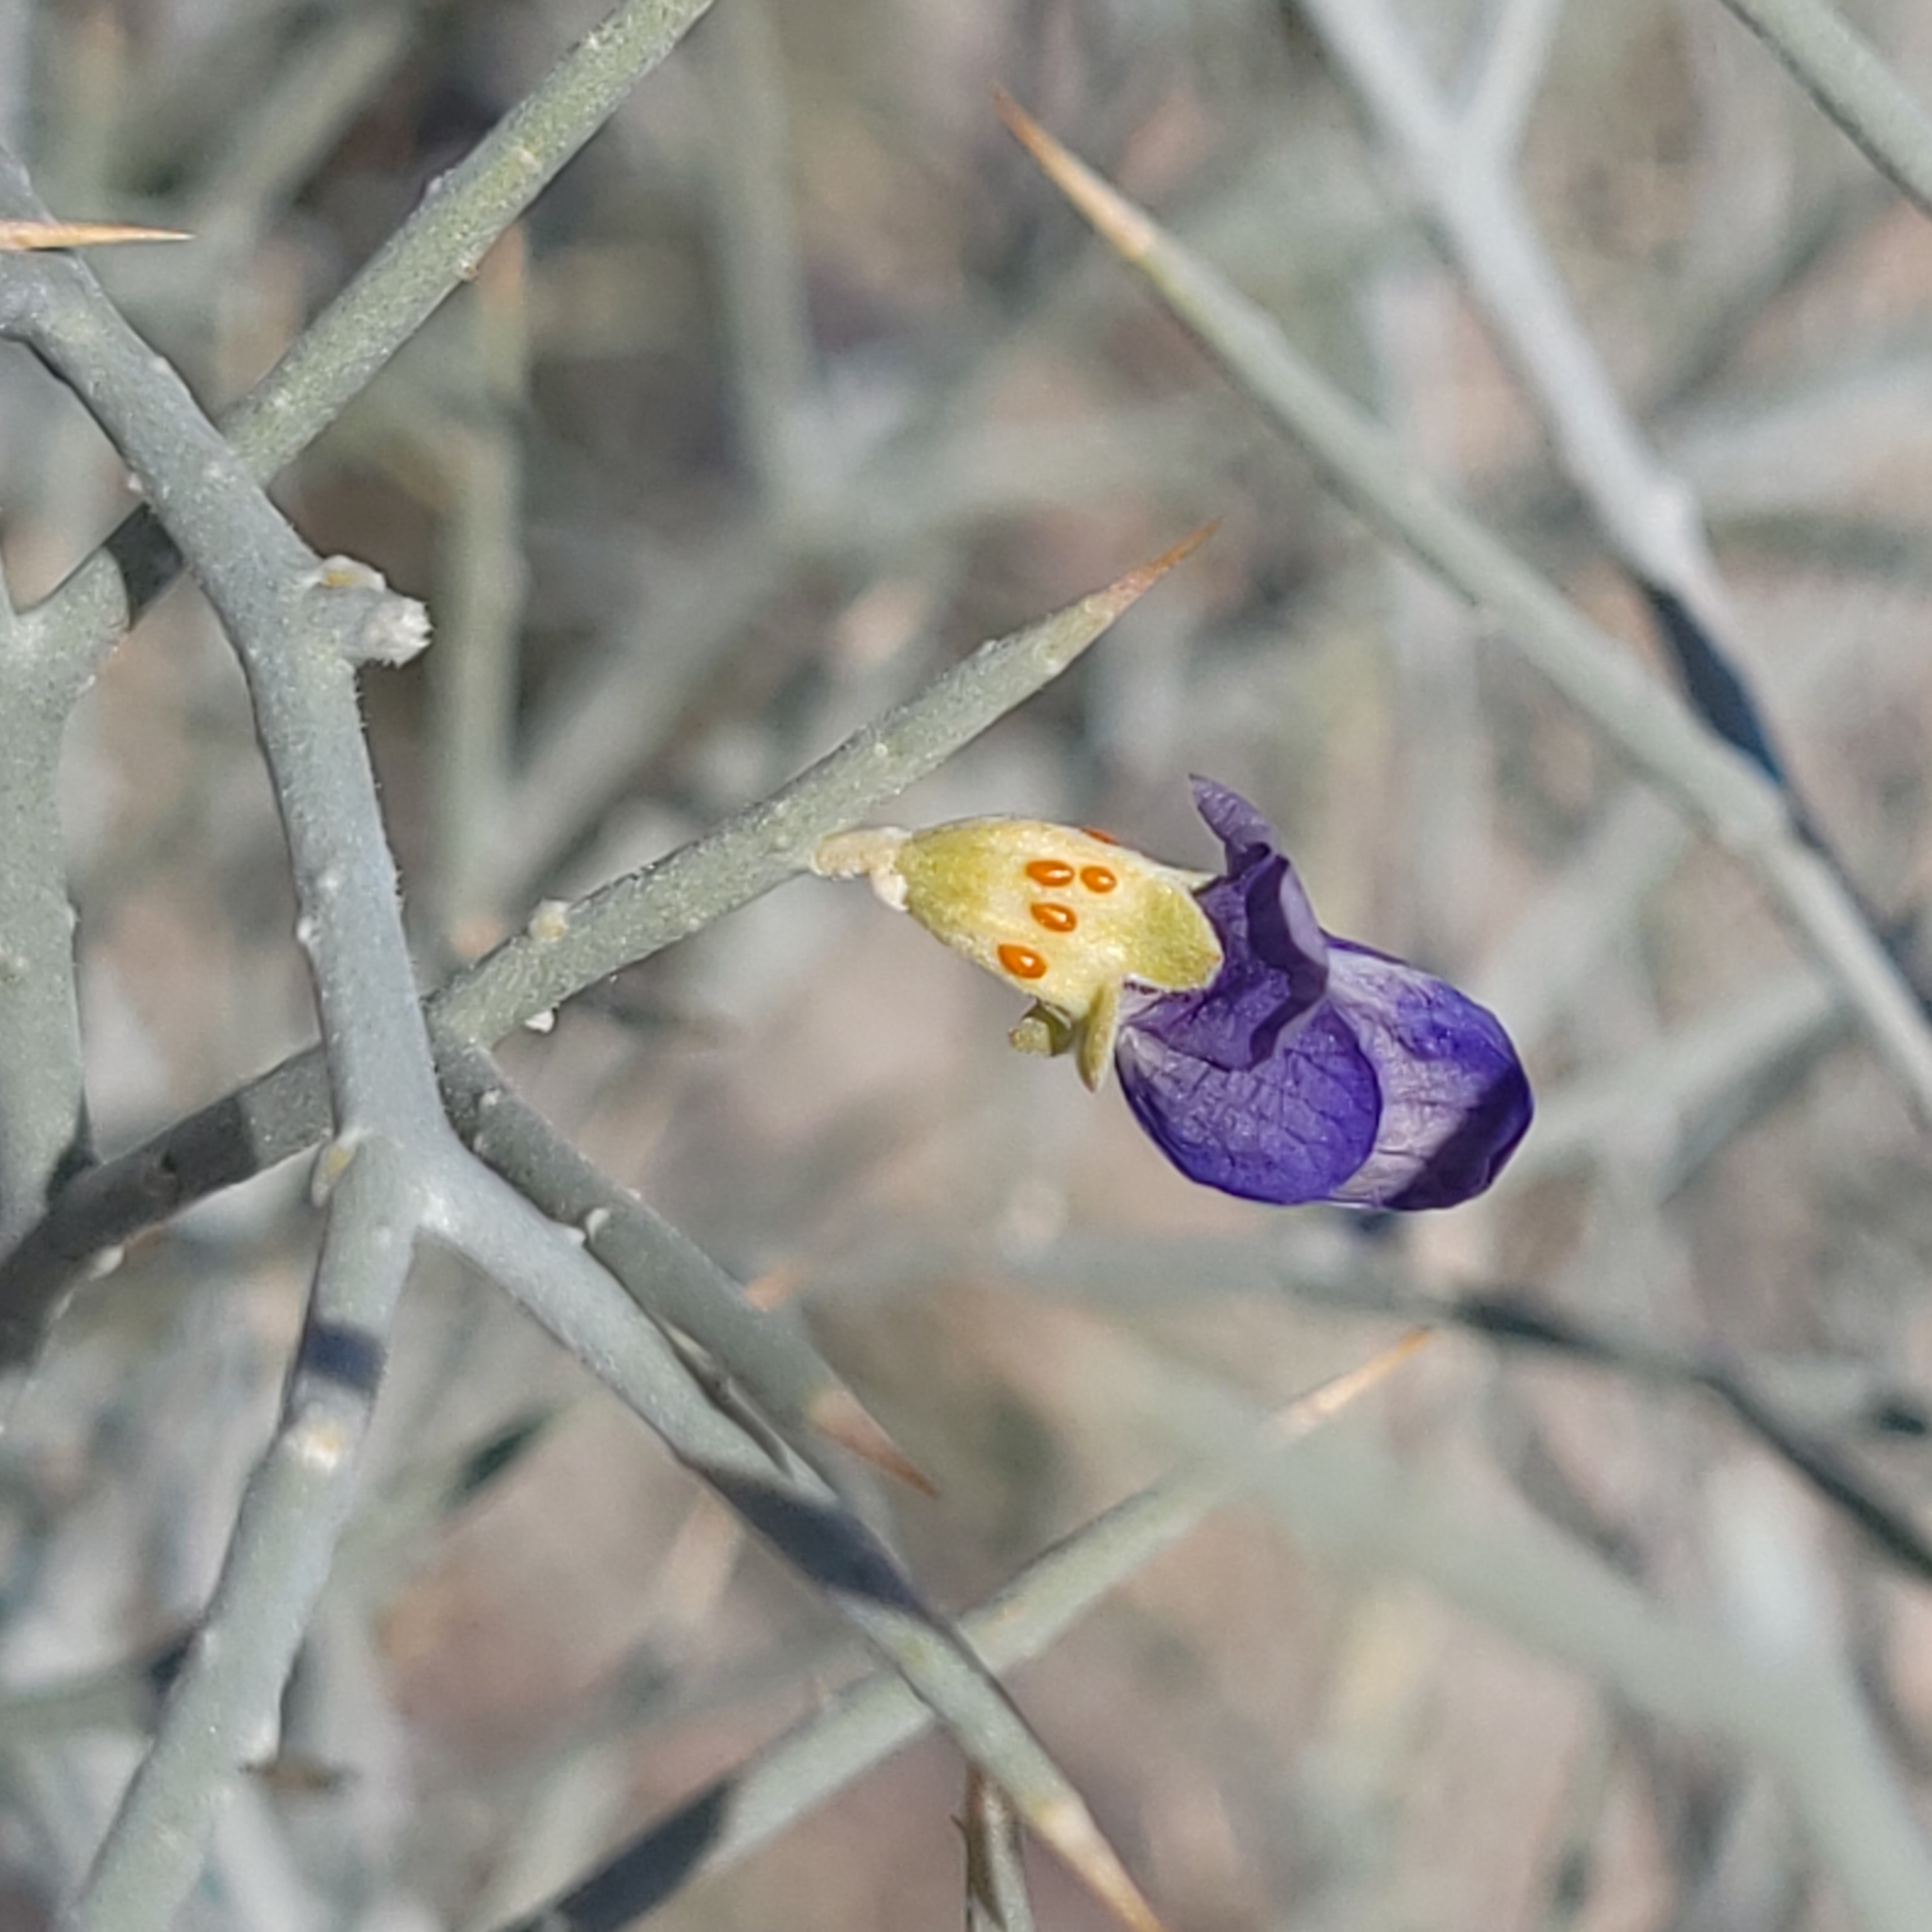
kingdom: Plantae
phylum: Tracheophyta
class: Magnoliopsida
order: Fabales
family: Fabaceae
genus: Psorothamnus
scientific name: Psorothamnus spinosus
